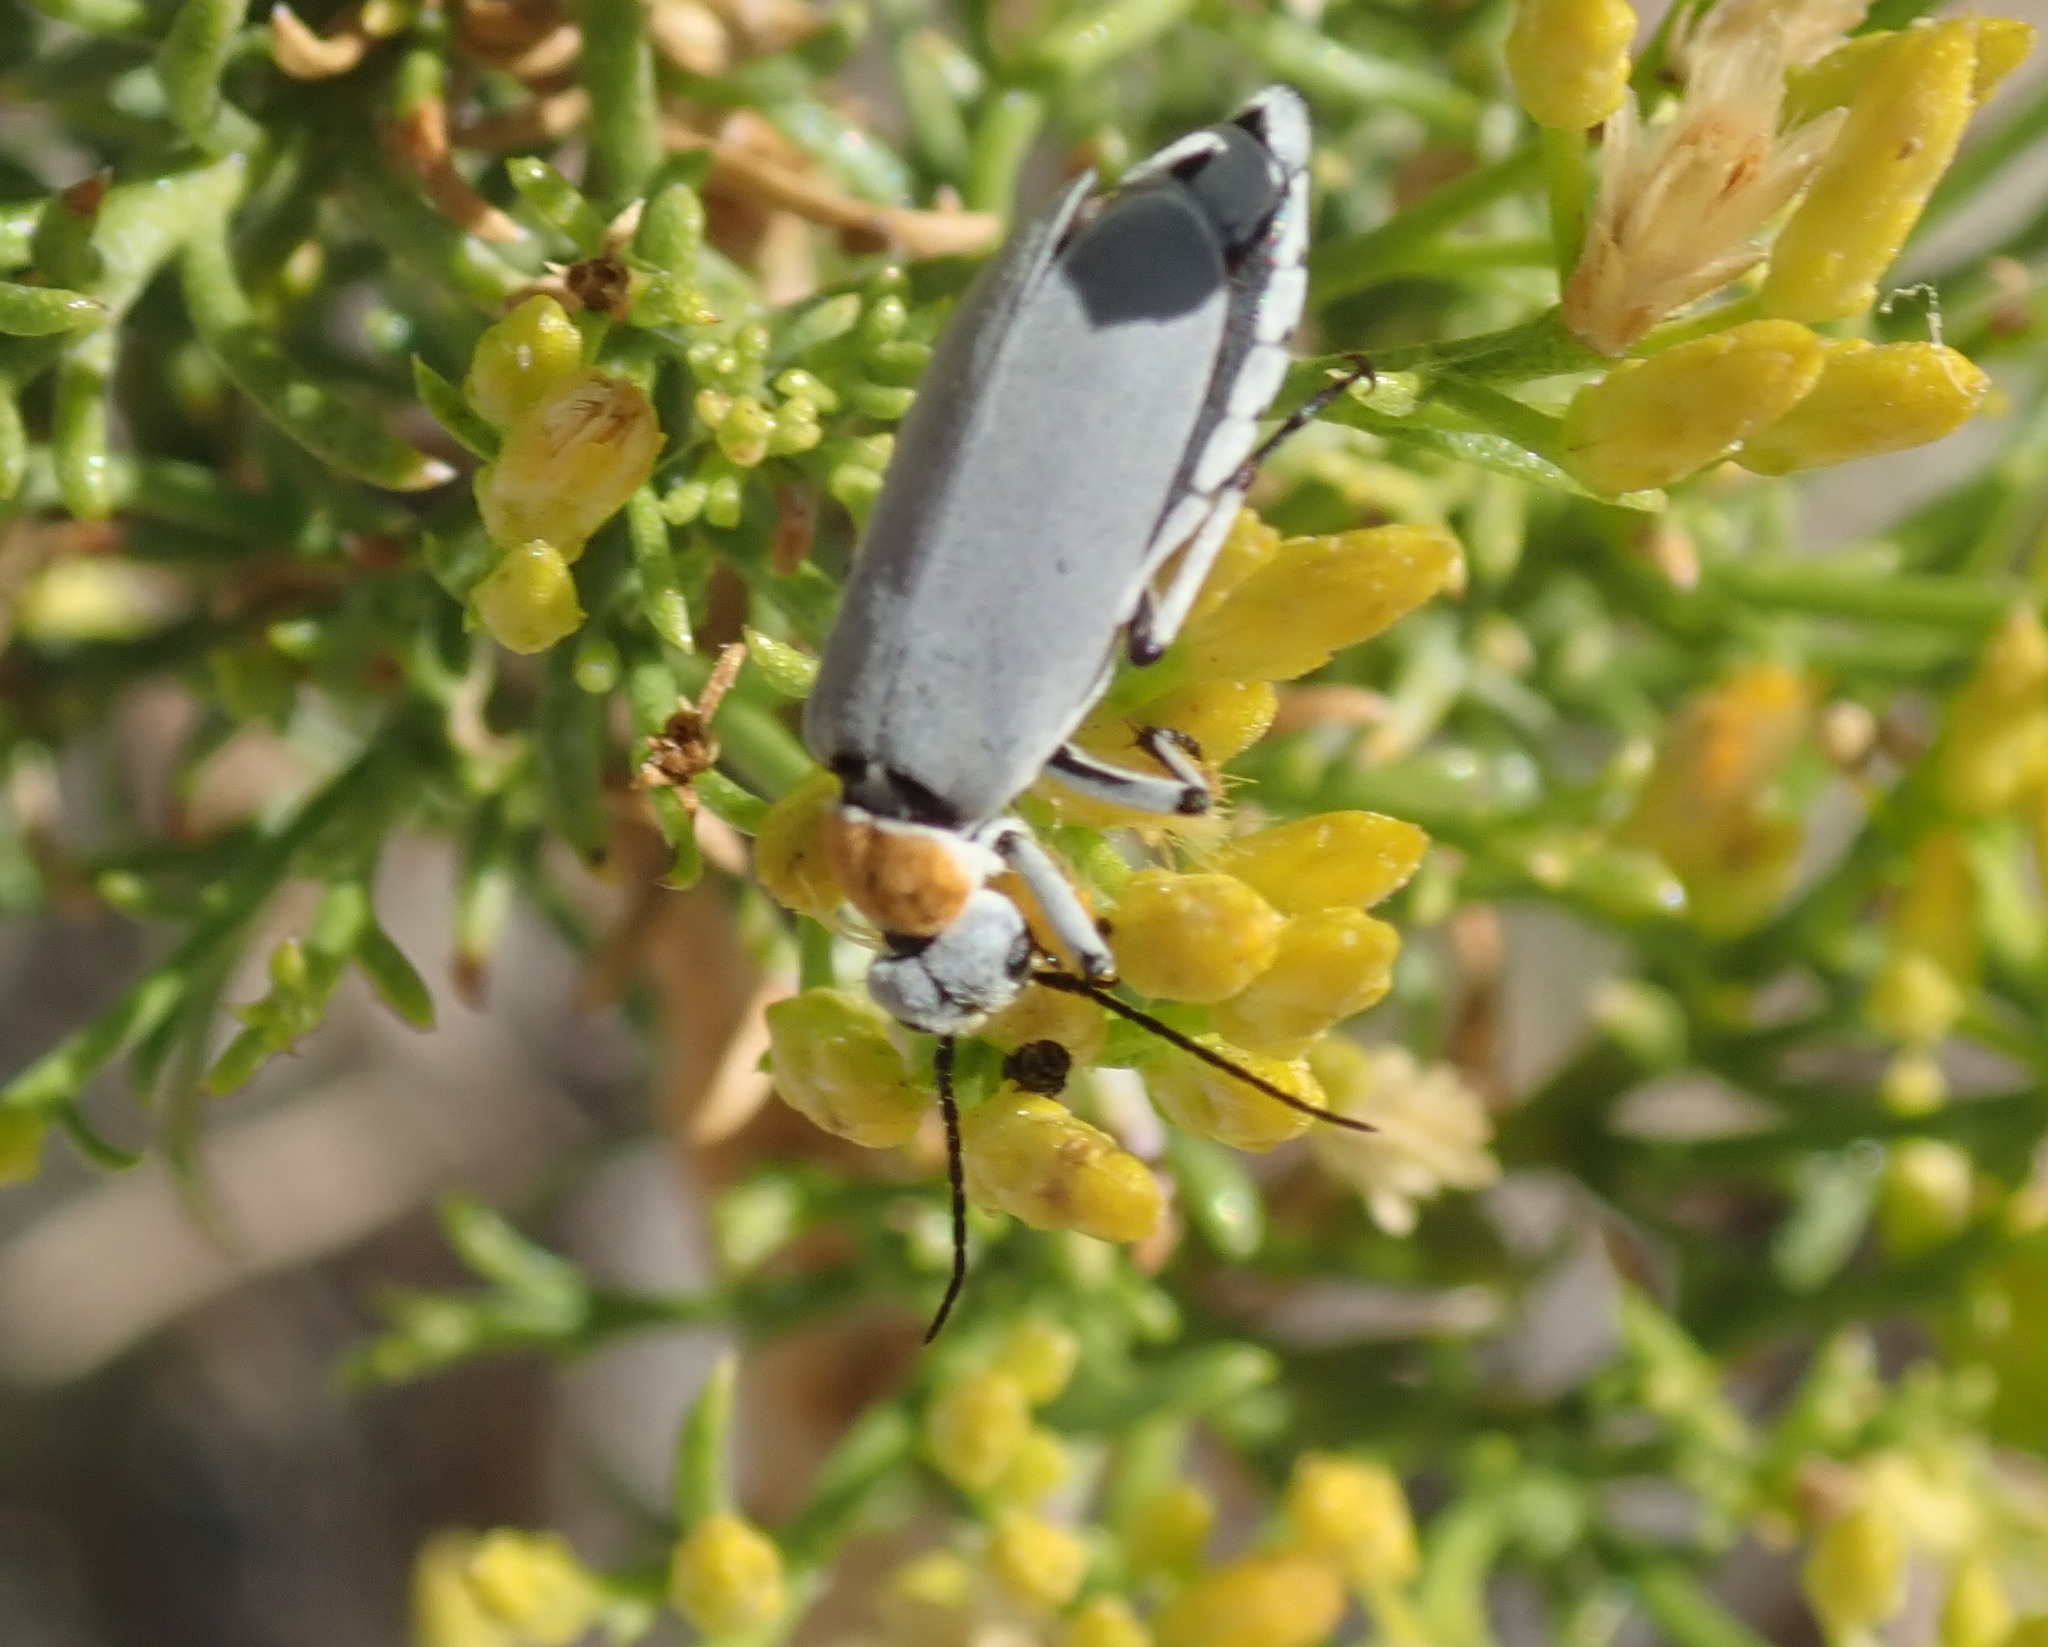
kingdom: Animalia
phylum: Arthropoda
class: Insecta
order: Coleoptera
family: Meloidae
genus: Epicauta
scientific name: Epicauta wheeleri
